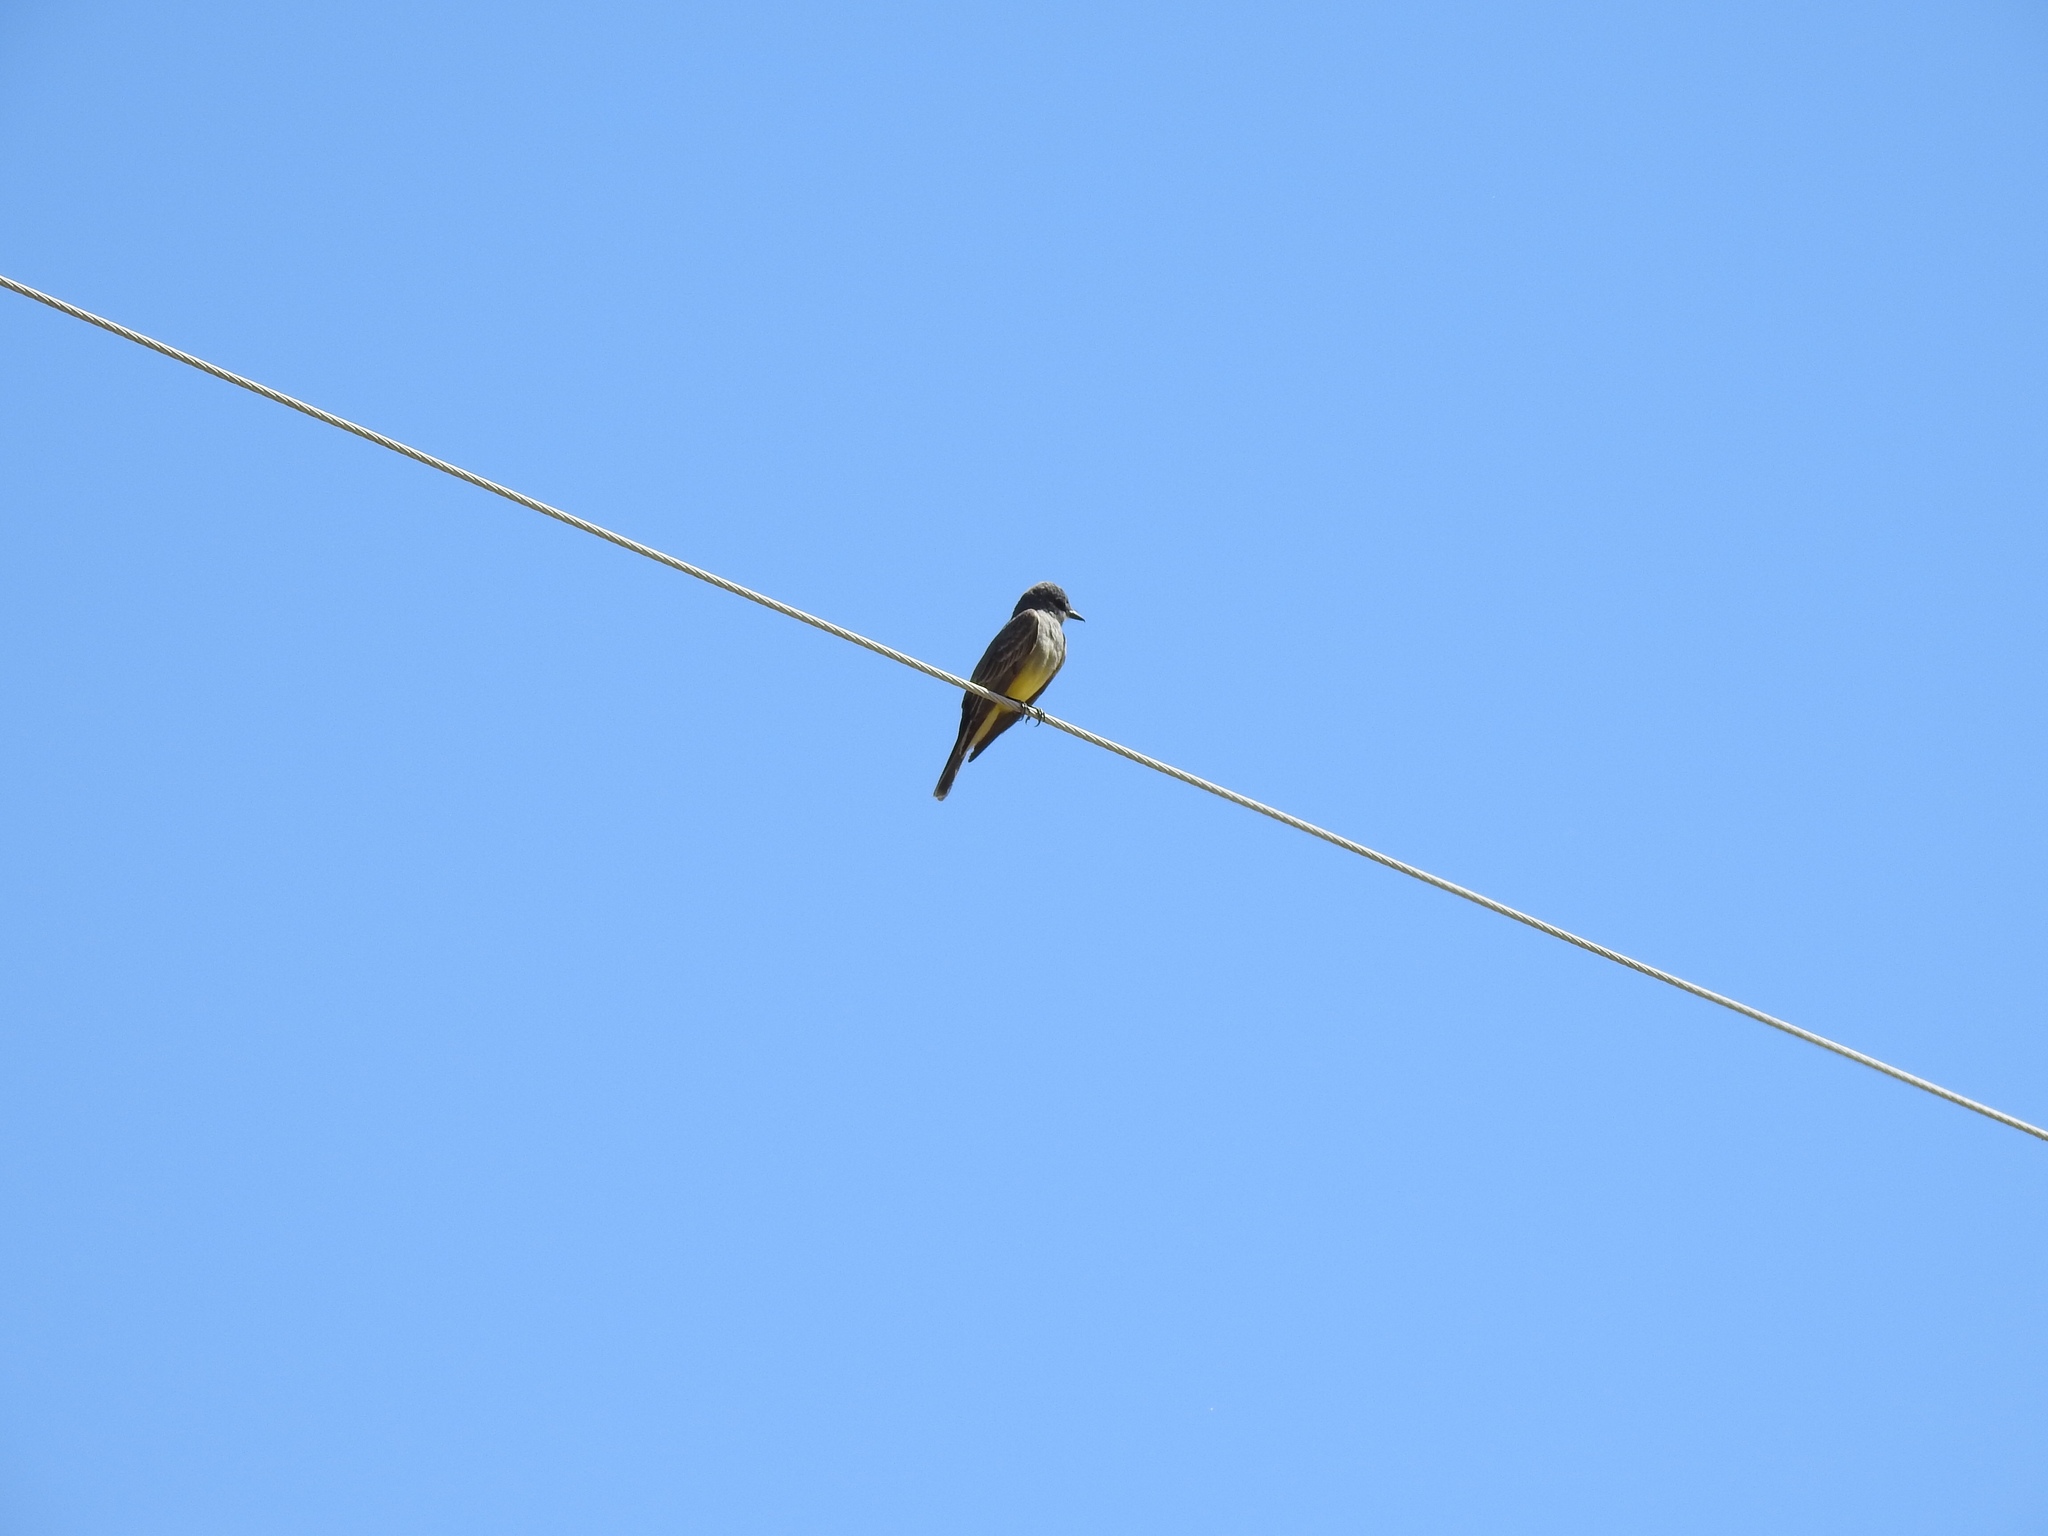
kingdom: Animalia
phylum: Chordata
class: Aves
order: Passeriformes
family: Tyrannidae
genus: Tyrannus
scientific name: Tyrannus vociferans
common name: Cassin's kingbird
